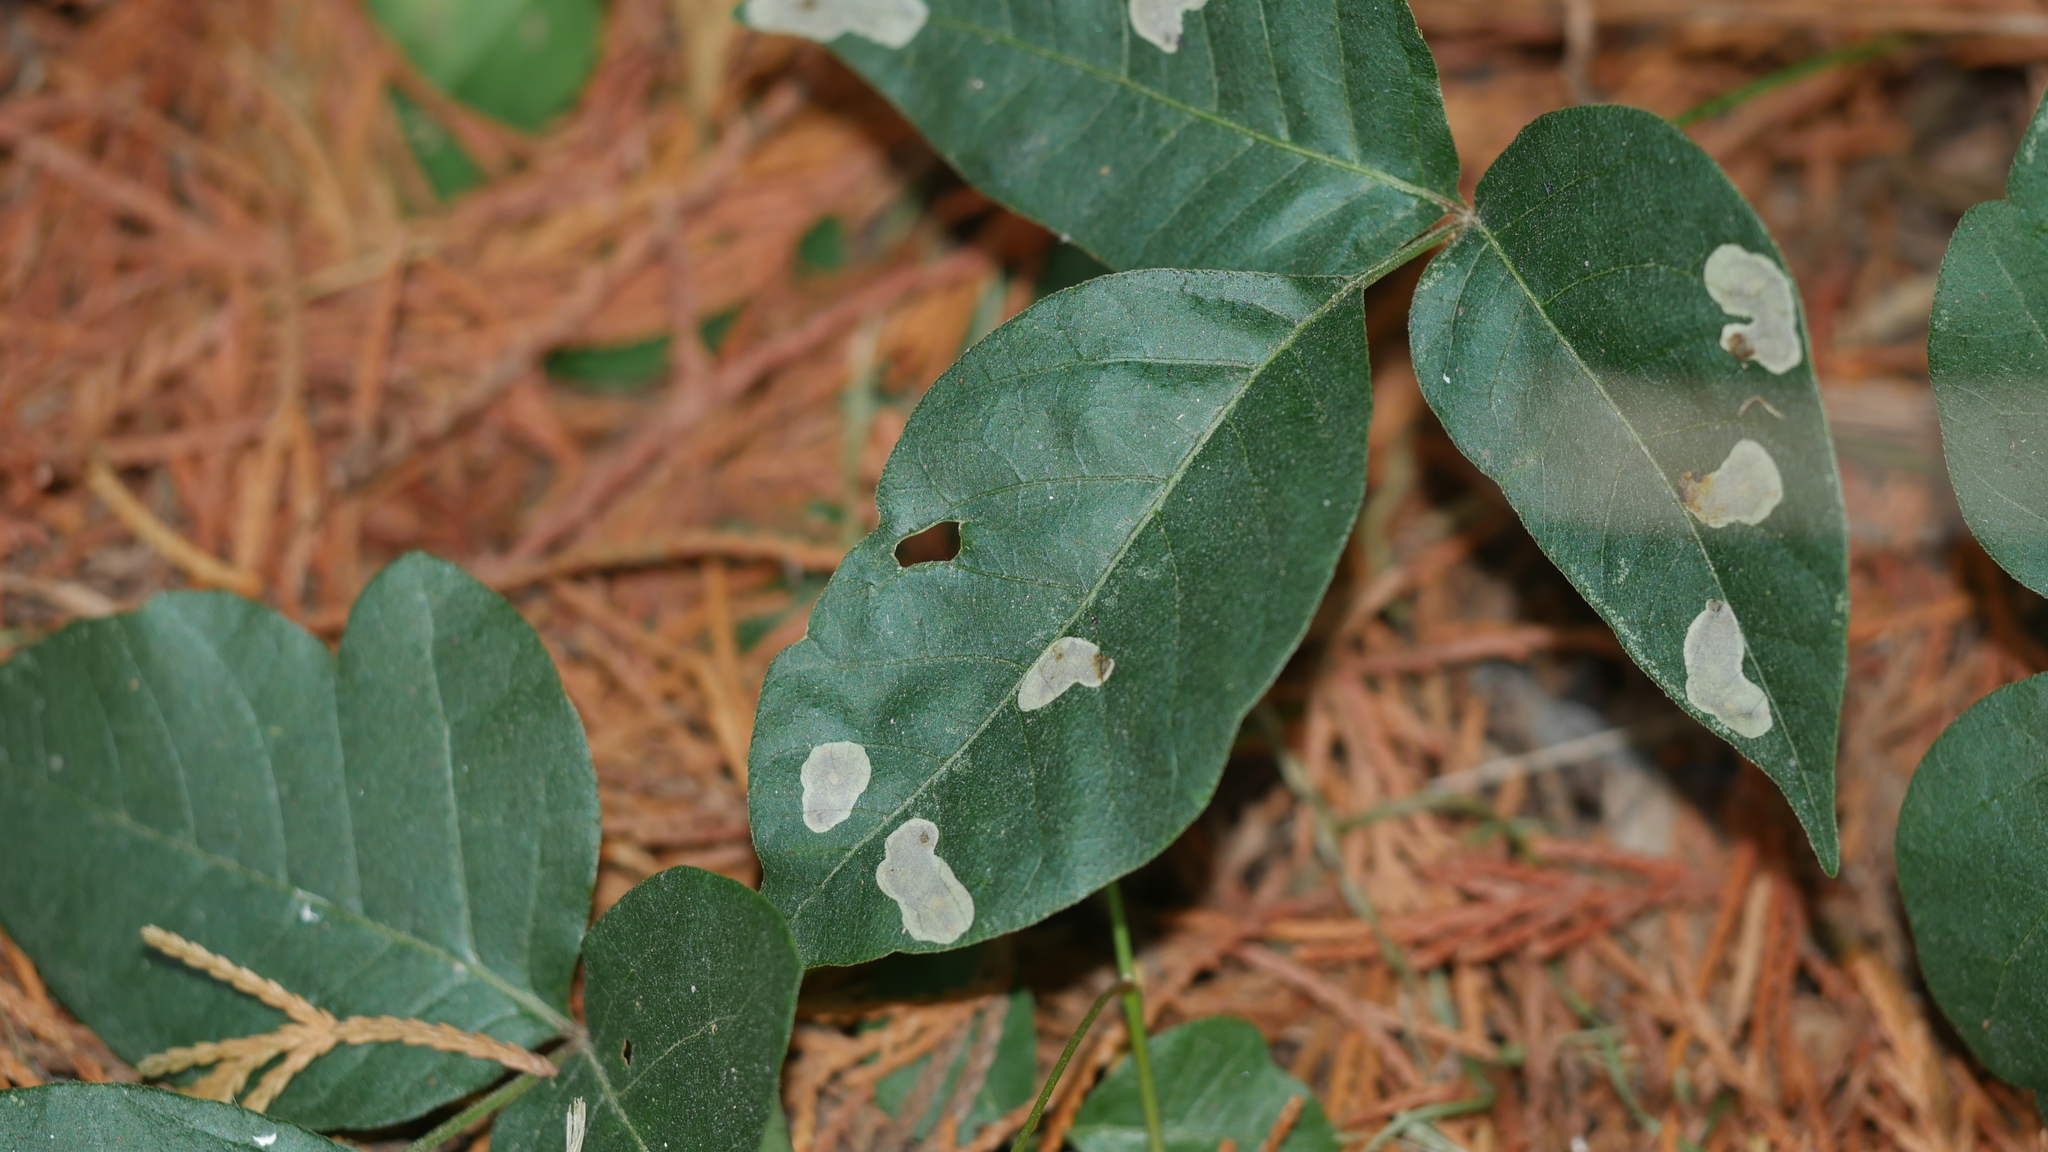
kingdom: Animalia
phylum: Arthropoda
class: Insecta
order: Lepidoptera
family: Gracillariidae
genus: Cameraria
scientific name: Cameraria guttifinitella
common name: Poison ivy leaf-miner moth
